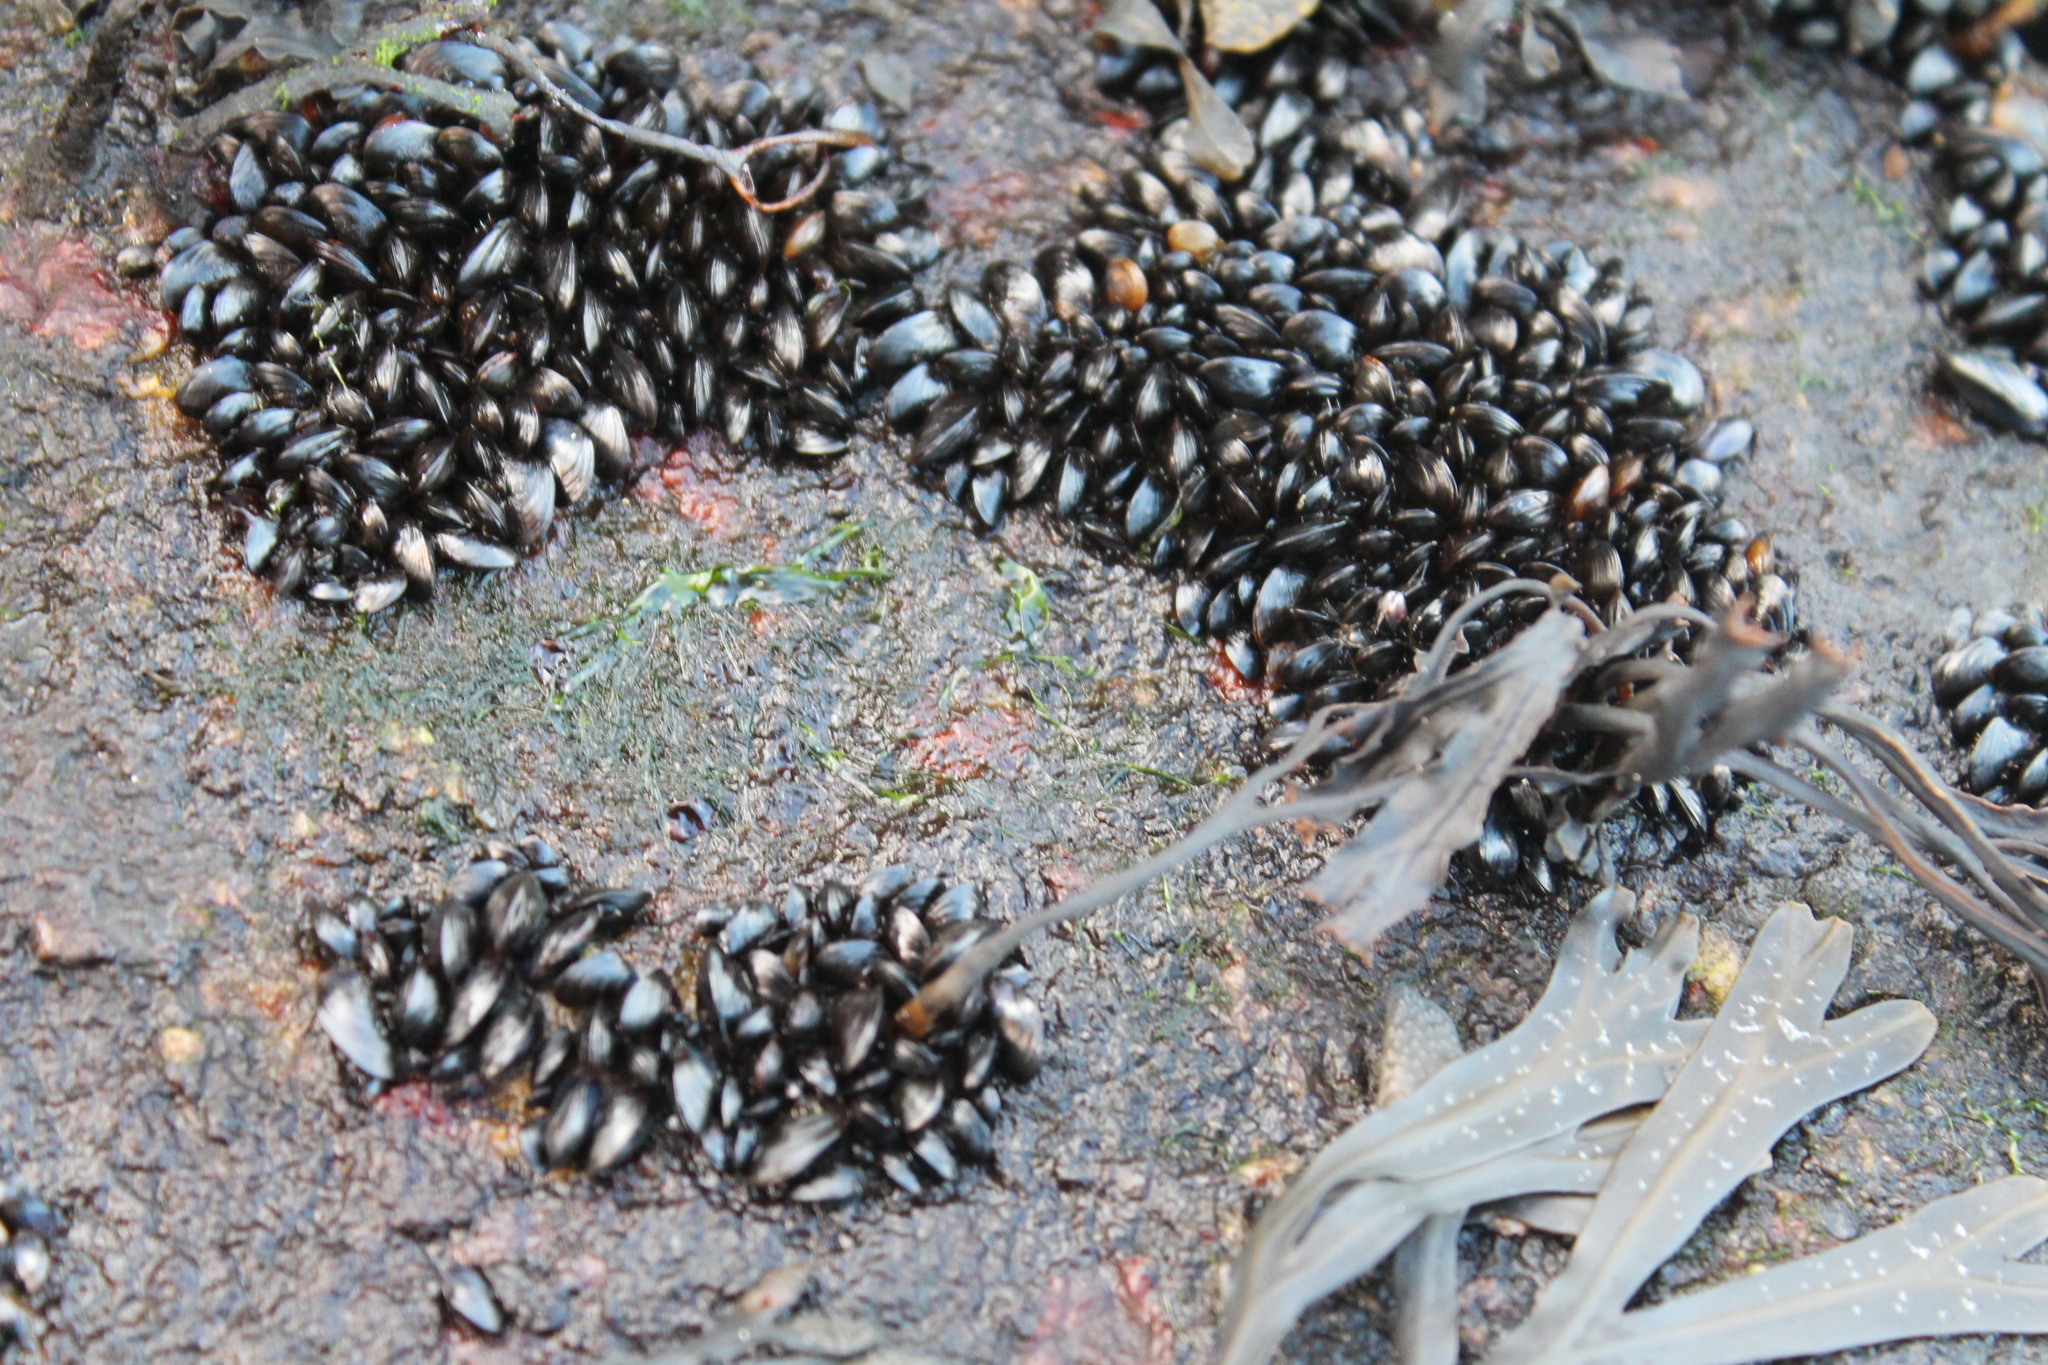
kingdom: Animalia
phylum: Mollusca
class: Bivalvia
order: Mytilida
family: Mytilidae
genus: Mytilus
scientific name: Mytilus edulis
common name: Blue mussel
